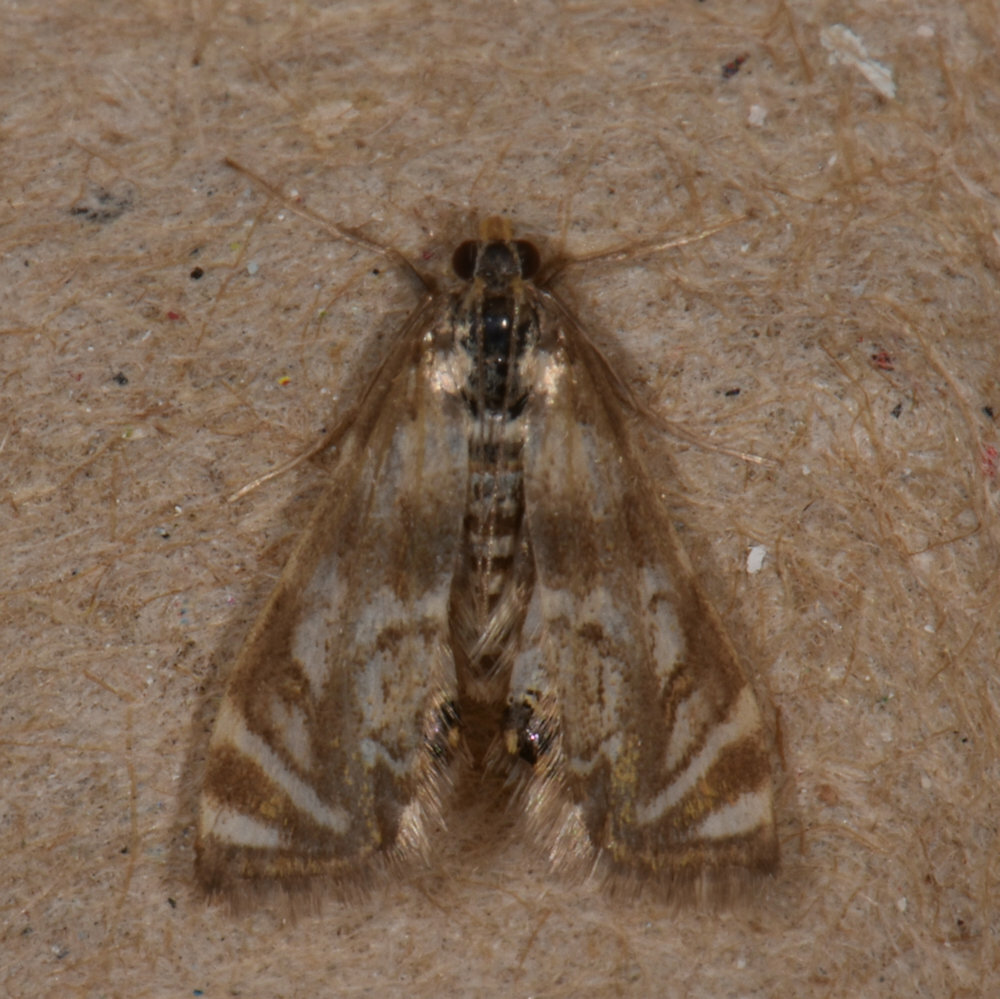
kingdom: Animalia
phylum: Arthropoda
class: Insecta
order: Lepidoptera
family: Crambidae
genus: Petrophila
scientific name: Petrophila canadensis
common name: Canadian petrophila
